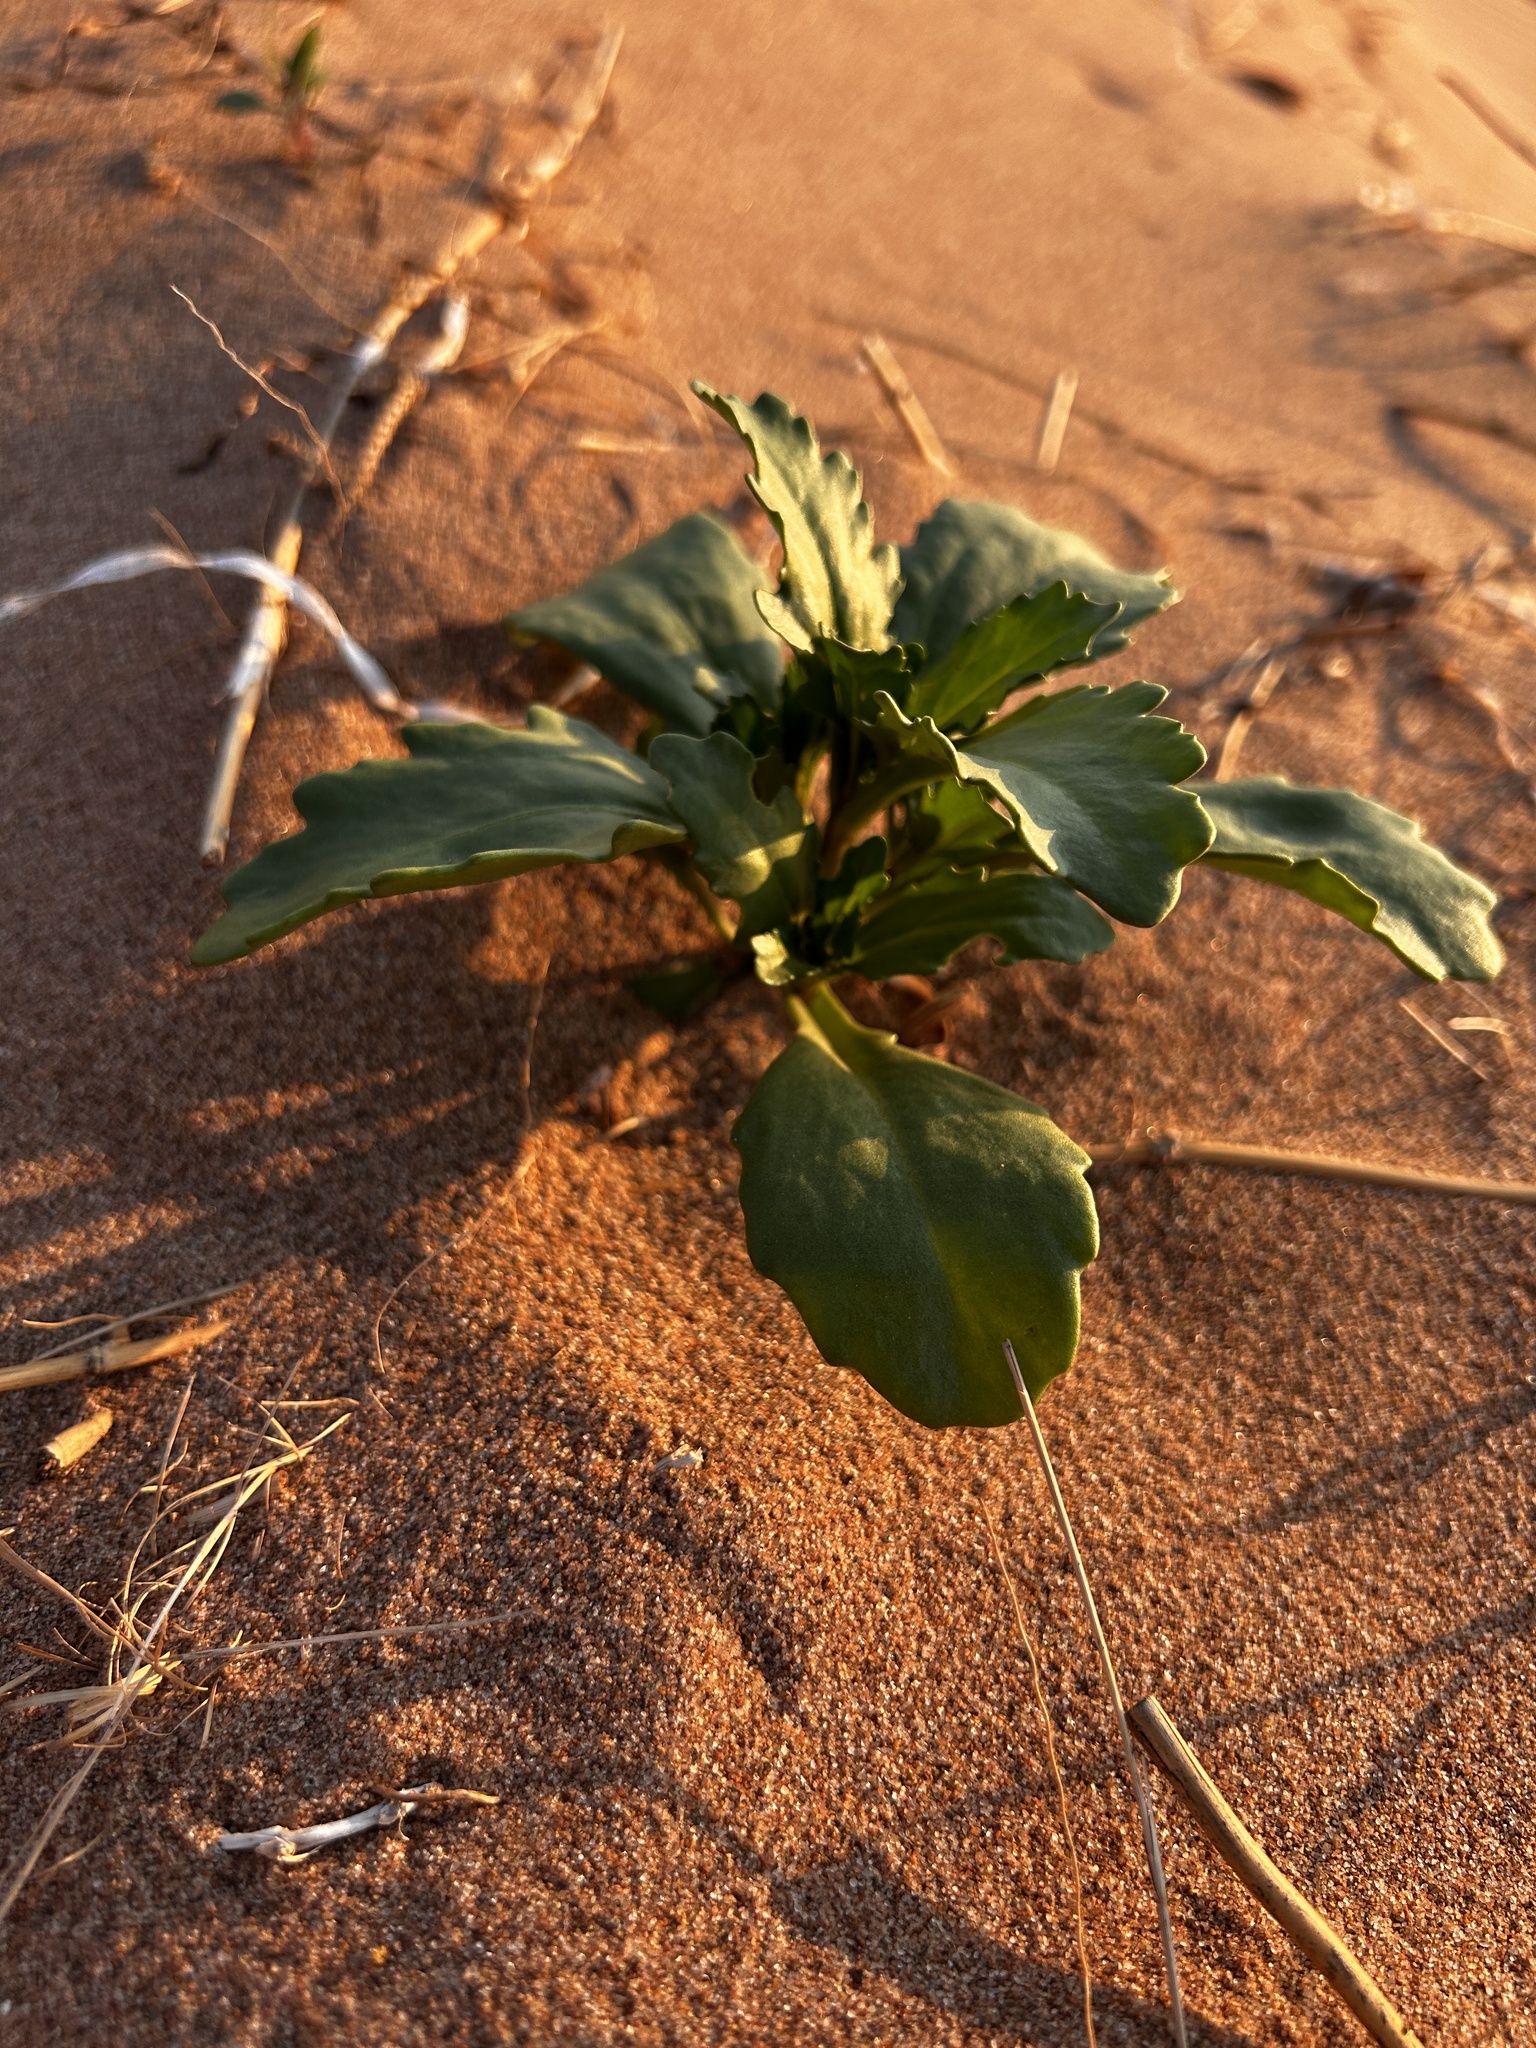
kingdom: Plantae
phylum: Tracheophyta
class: Magnoliopsida
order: Brassicales
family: Brassicaceae
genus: Cakile
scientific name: Cakile edentula
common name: American sea rocket
